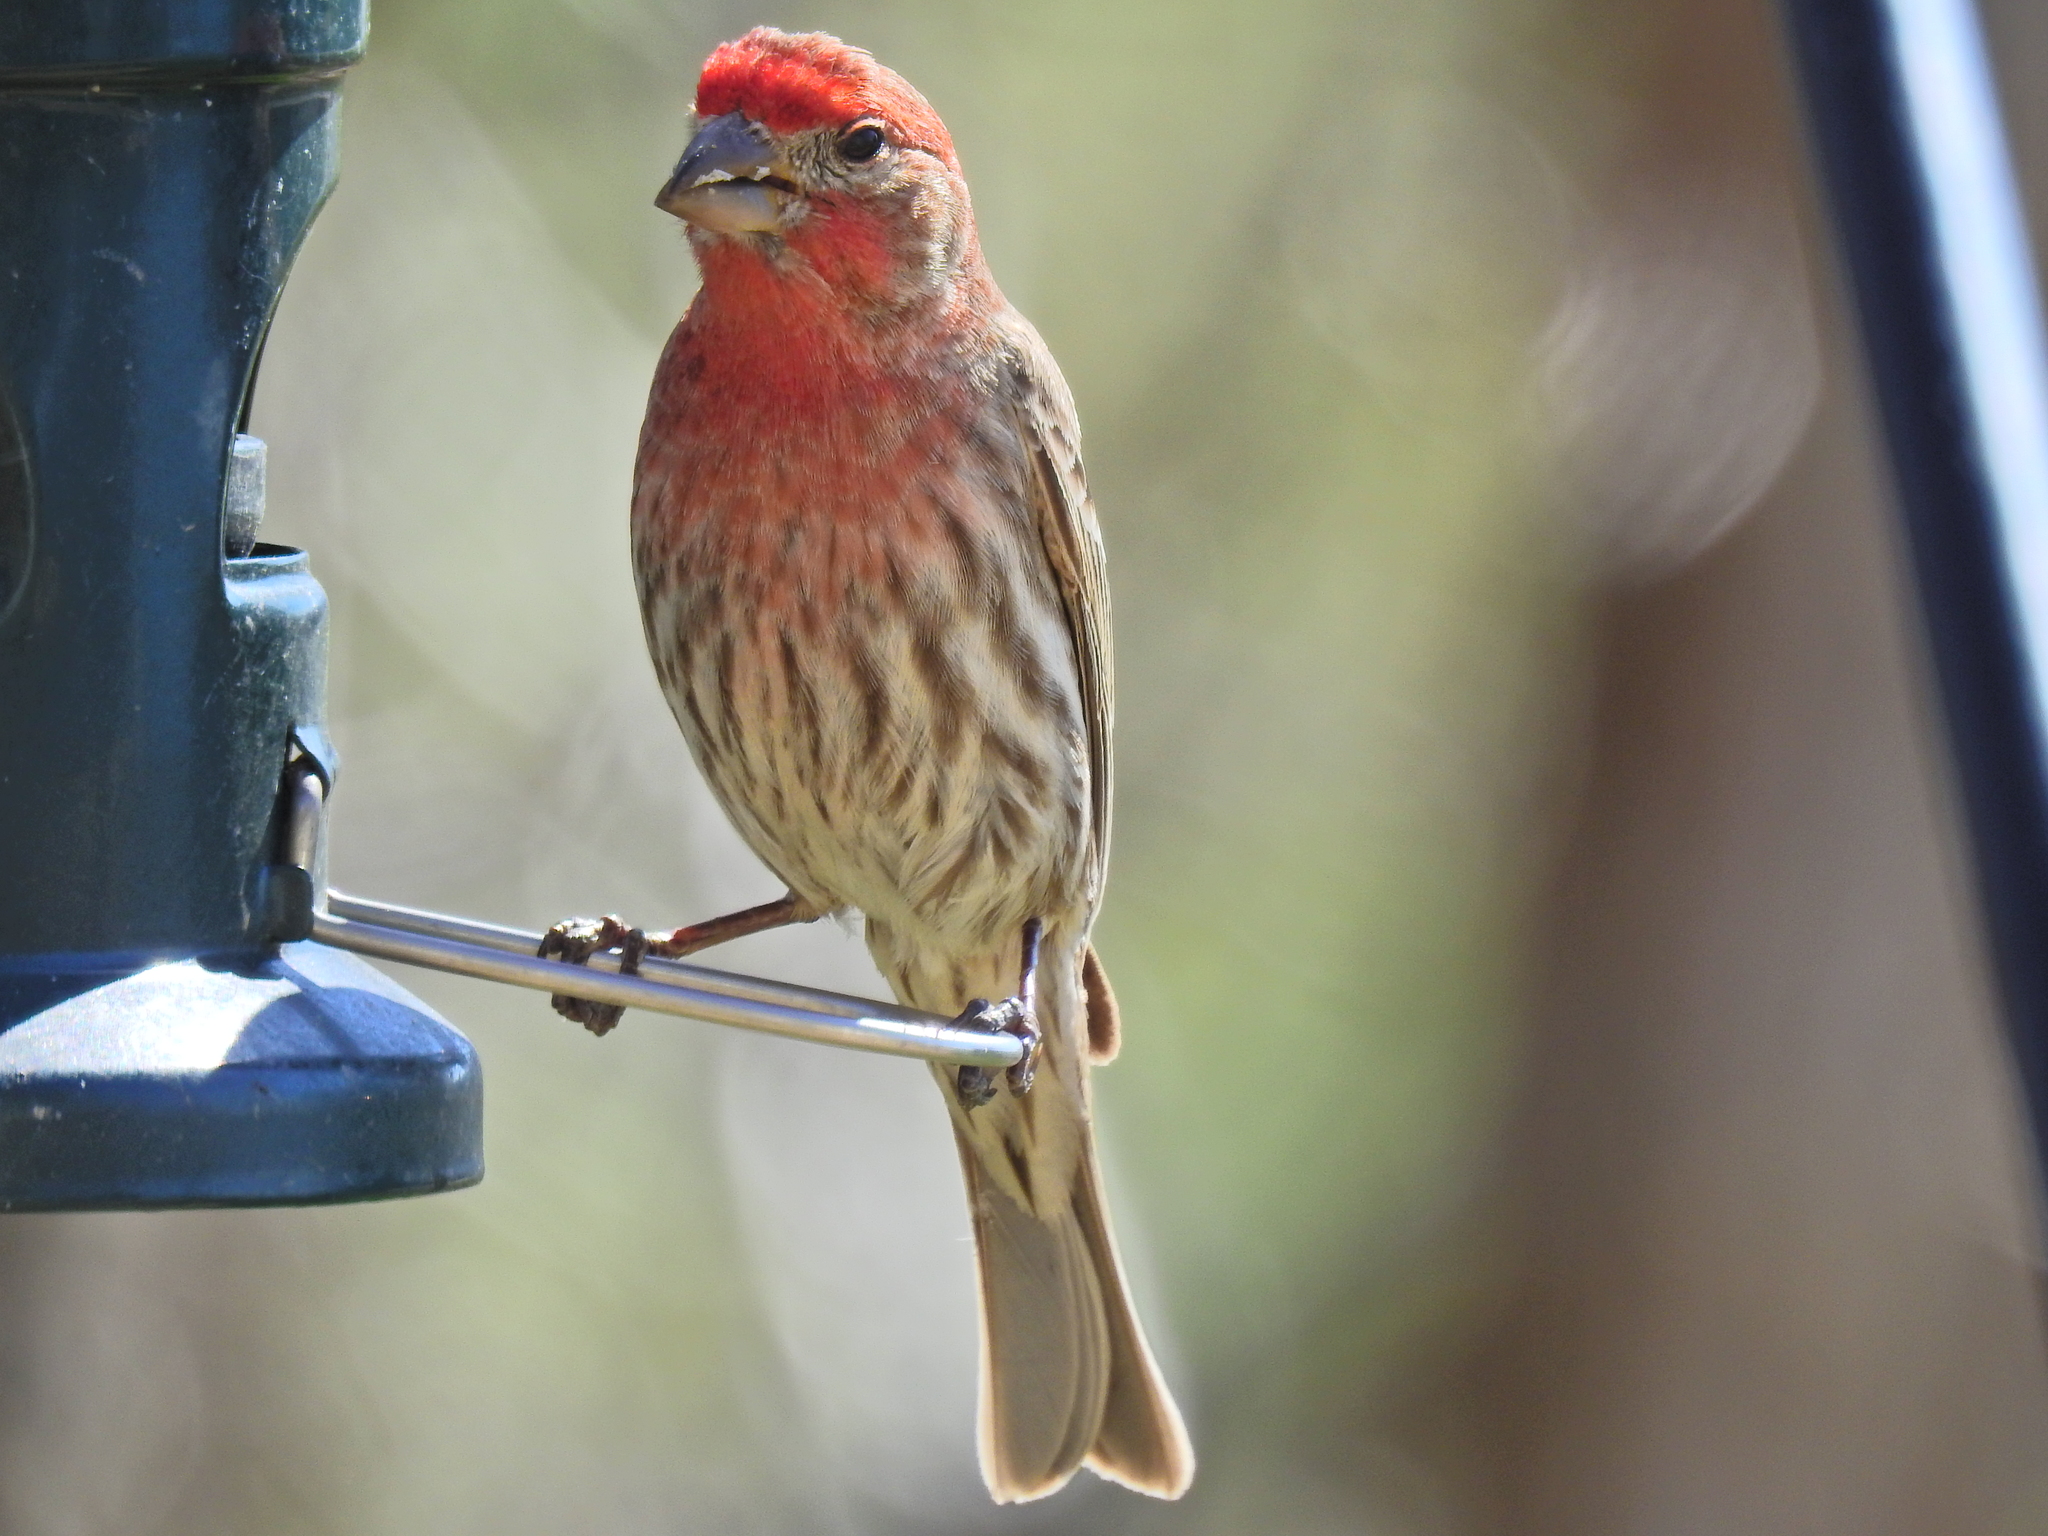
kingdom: Animalia
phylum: Chordata
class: Aves
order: Passeriformes
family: Fringillidae
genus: Haemorhous
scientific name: Haemorhous mexicanus
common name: House finch
